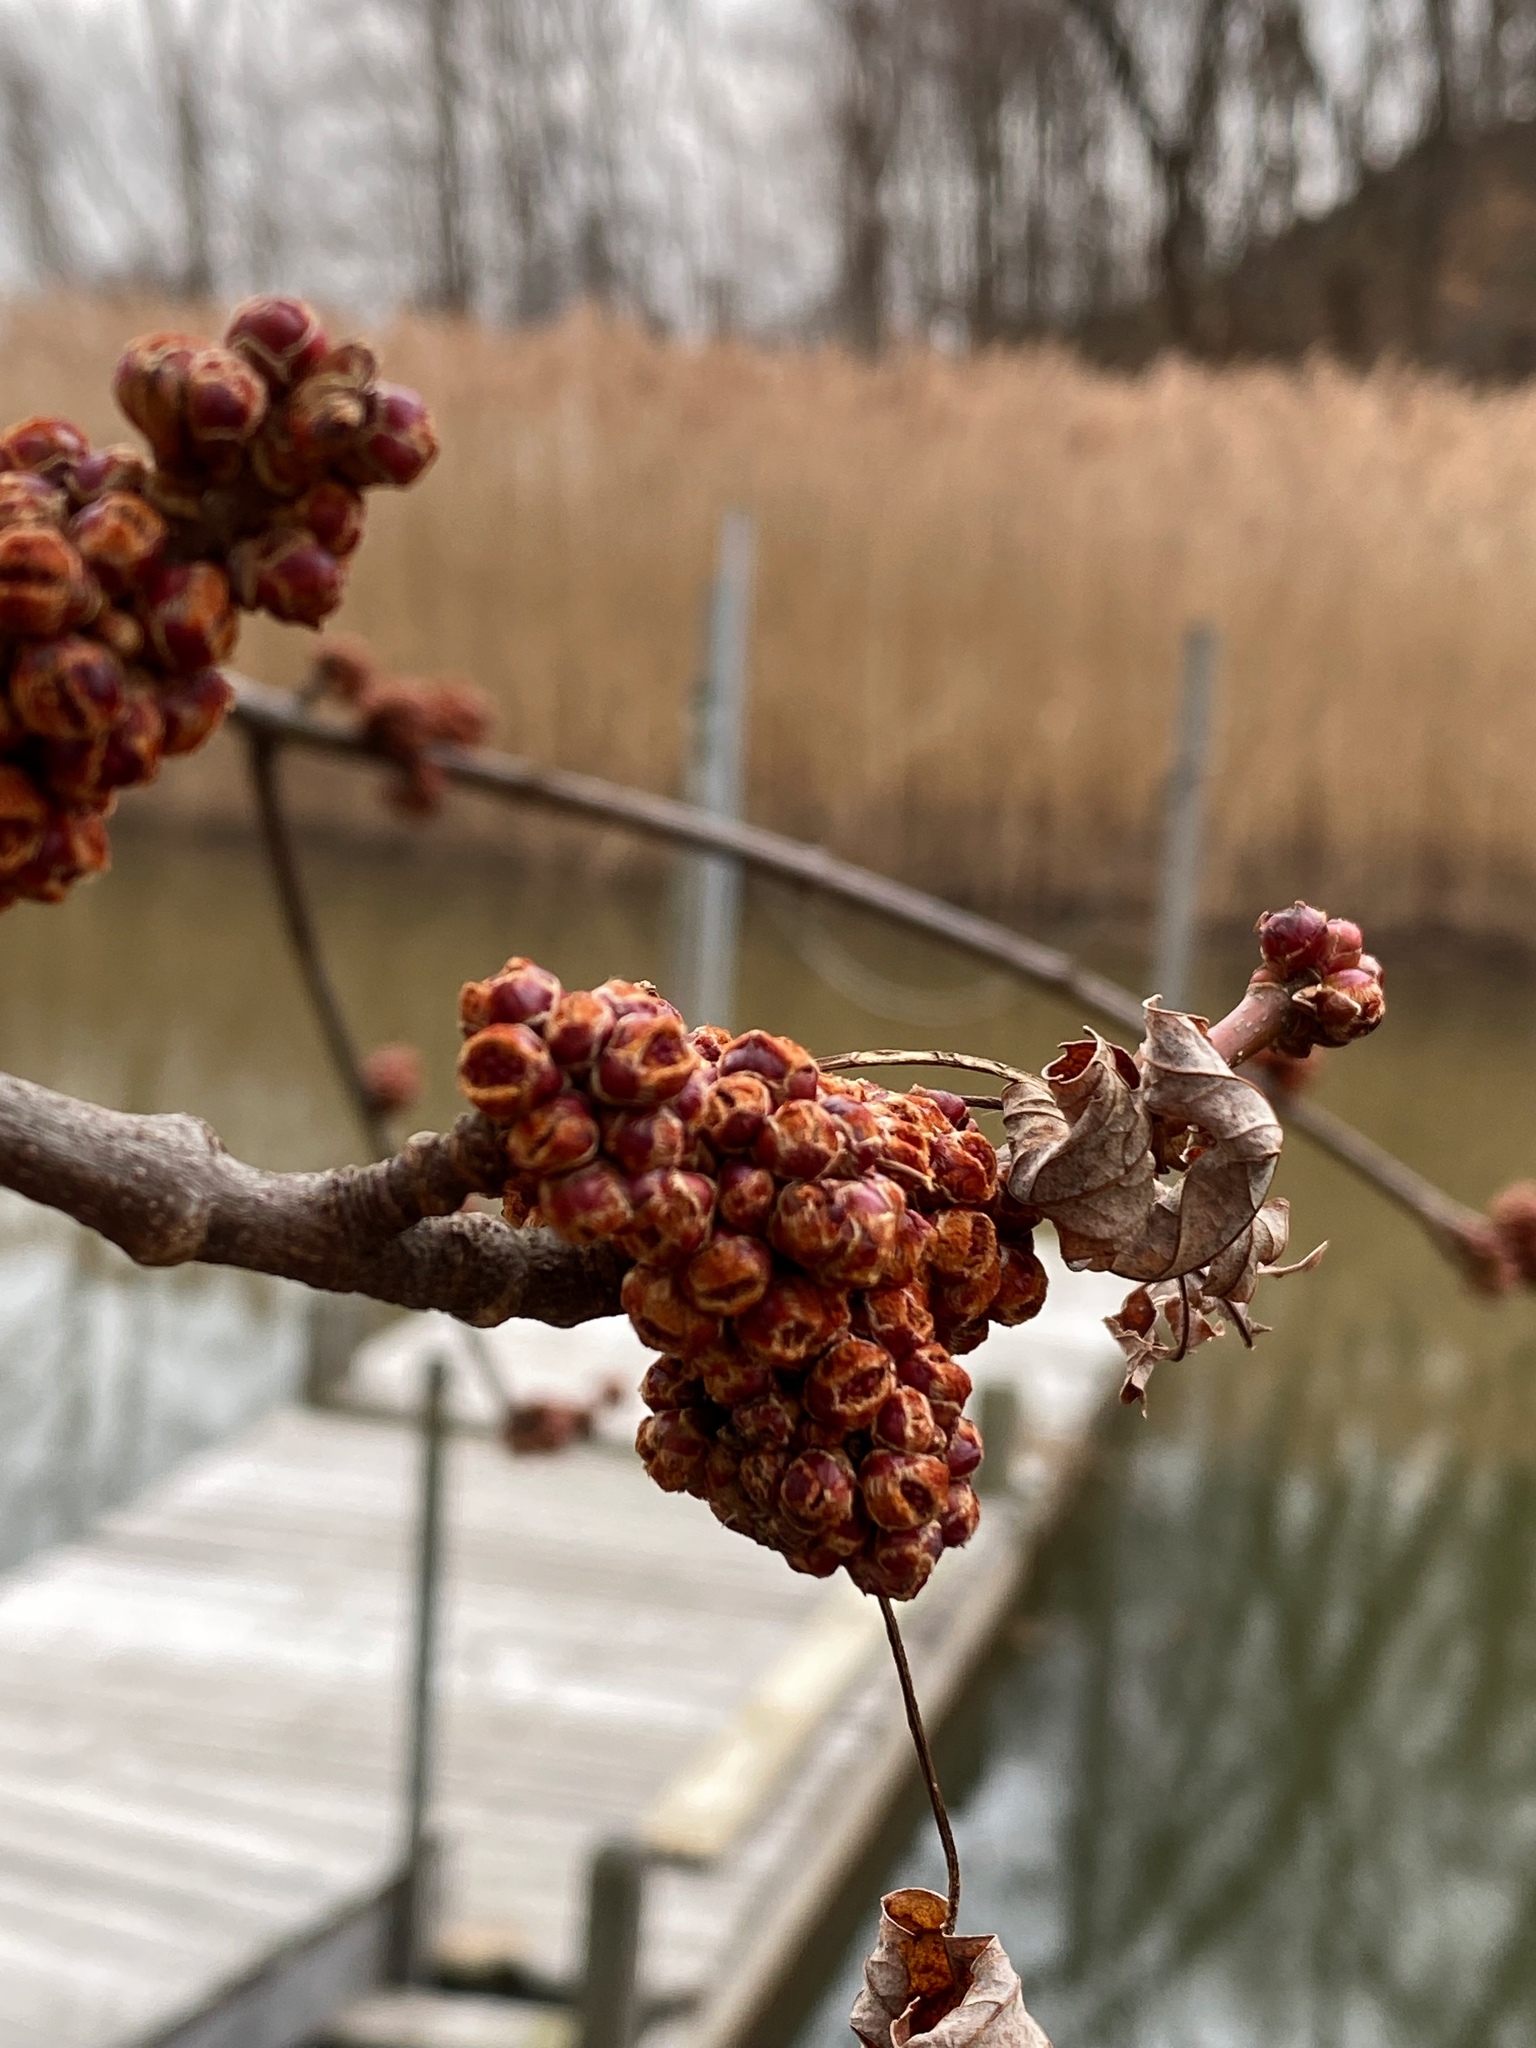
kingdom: Plantae
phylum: Tracheophyta
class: Magnoliopsida
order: Sapindales
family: Sapindaceae
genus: Acer
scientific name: Acer saccharinum
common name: Silver maple
